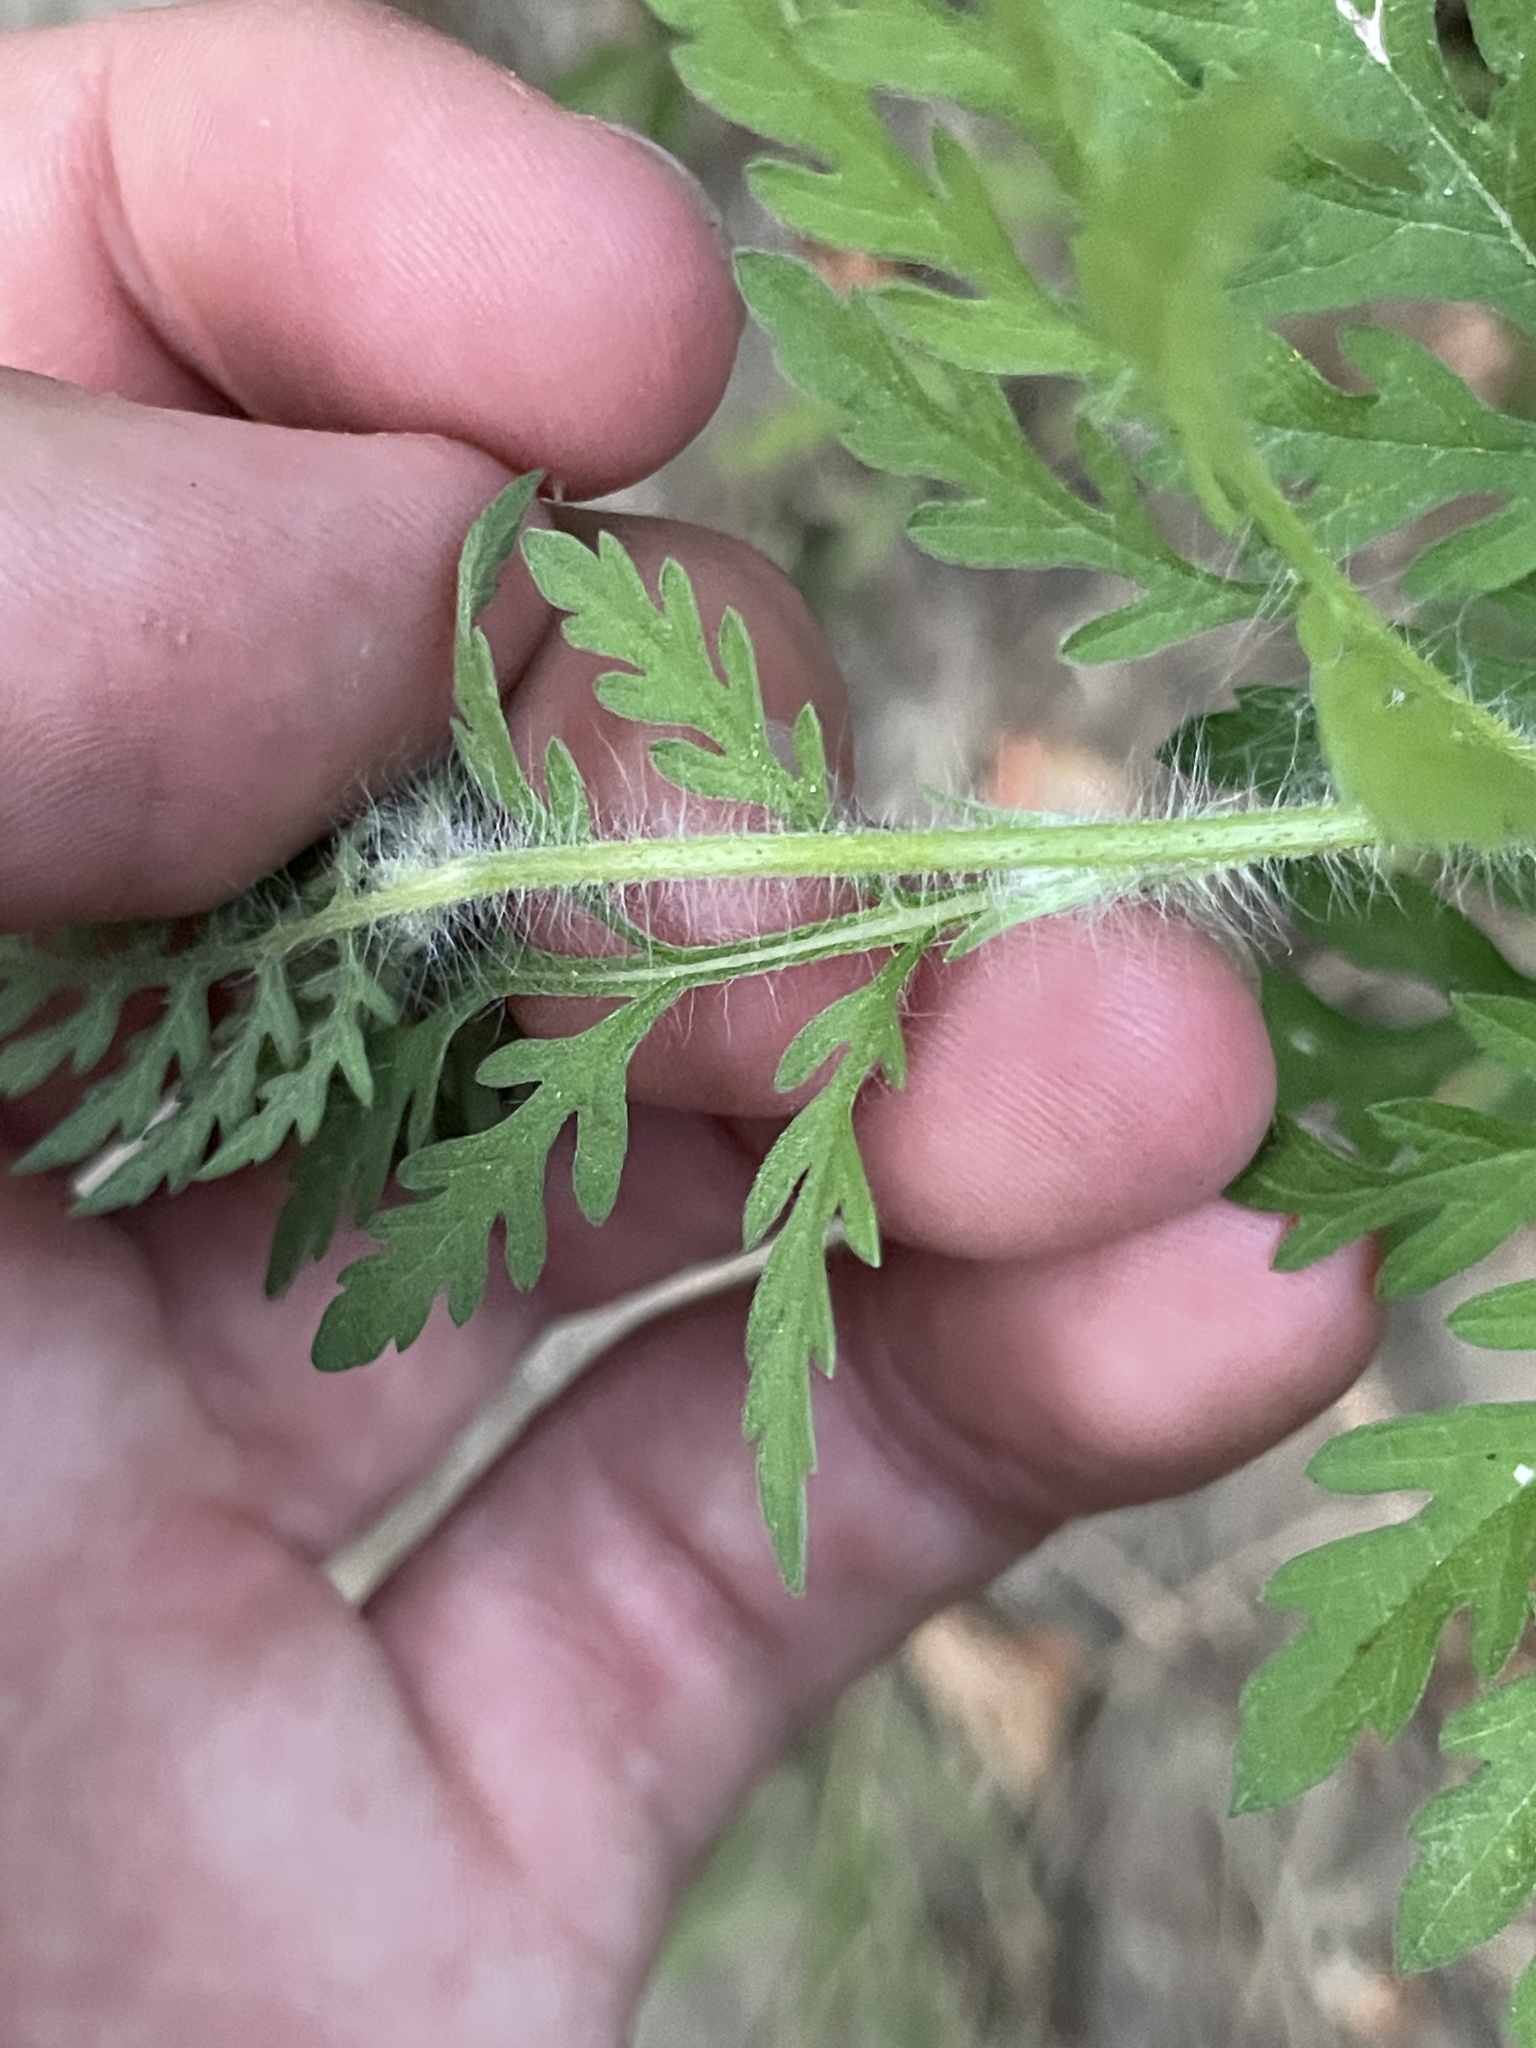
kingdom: Plantae
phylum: Tracheophyta
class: Magnoliopsida
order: Asterales
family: Asteraceae
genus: Ambrosia
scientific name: Ambrosia artemisiifolia
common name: Annual ragweed
